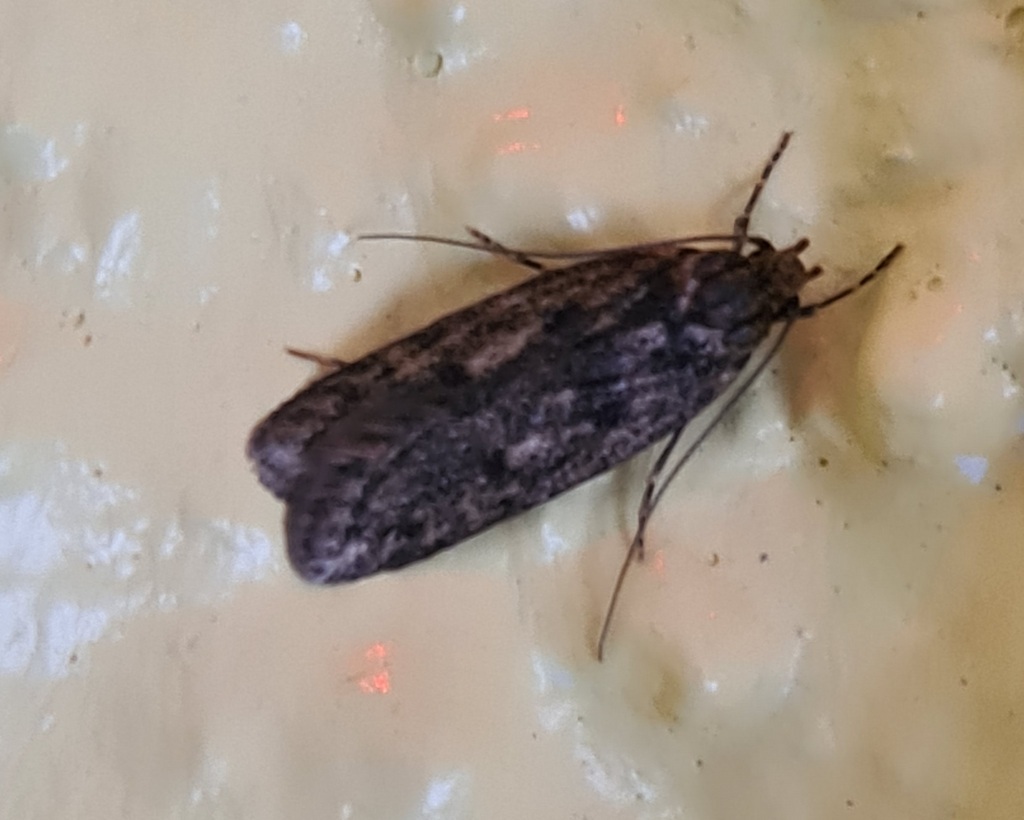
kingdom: Animalia
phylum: Arthropoda
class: Insecta
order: Lepidoptera
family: Oecophoridae
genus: Hofmannophila
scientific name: Hofmannophila pseudospretella
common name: Brown house moth
